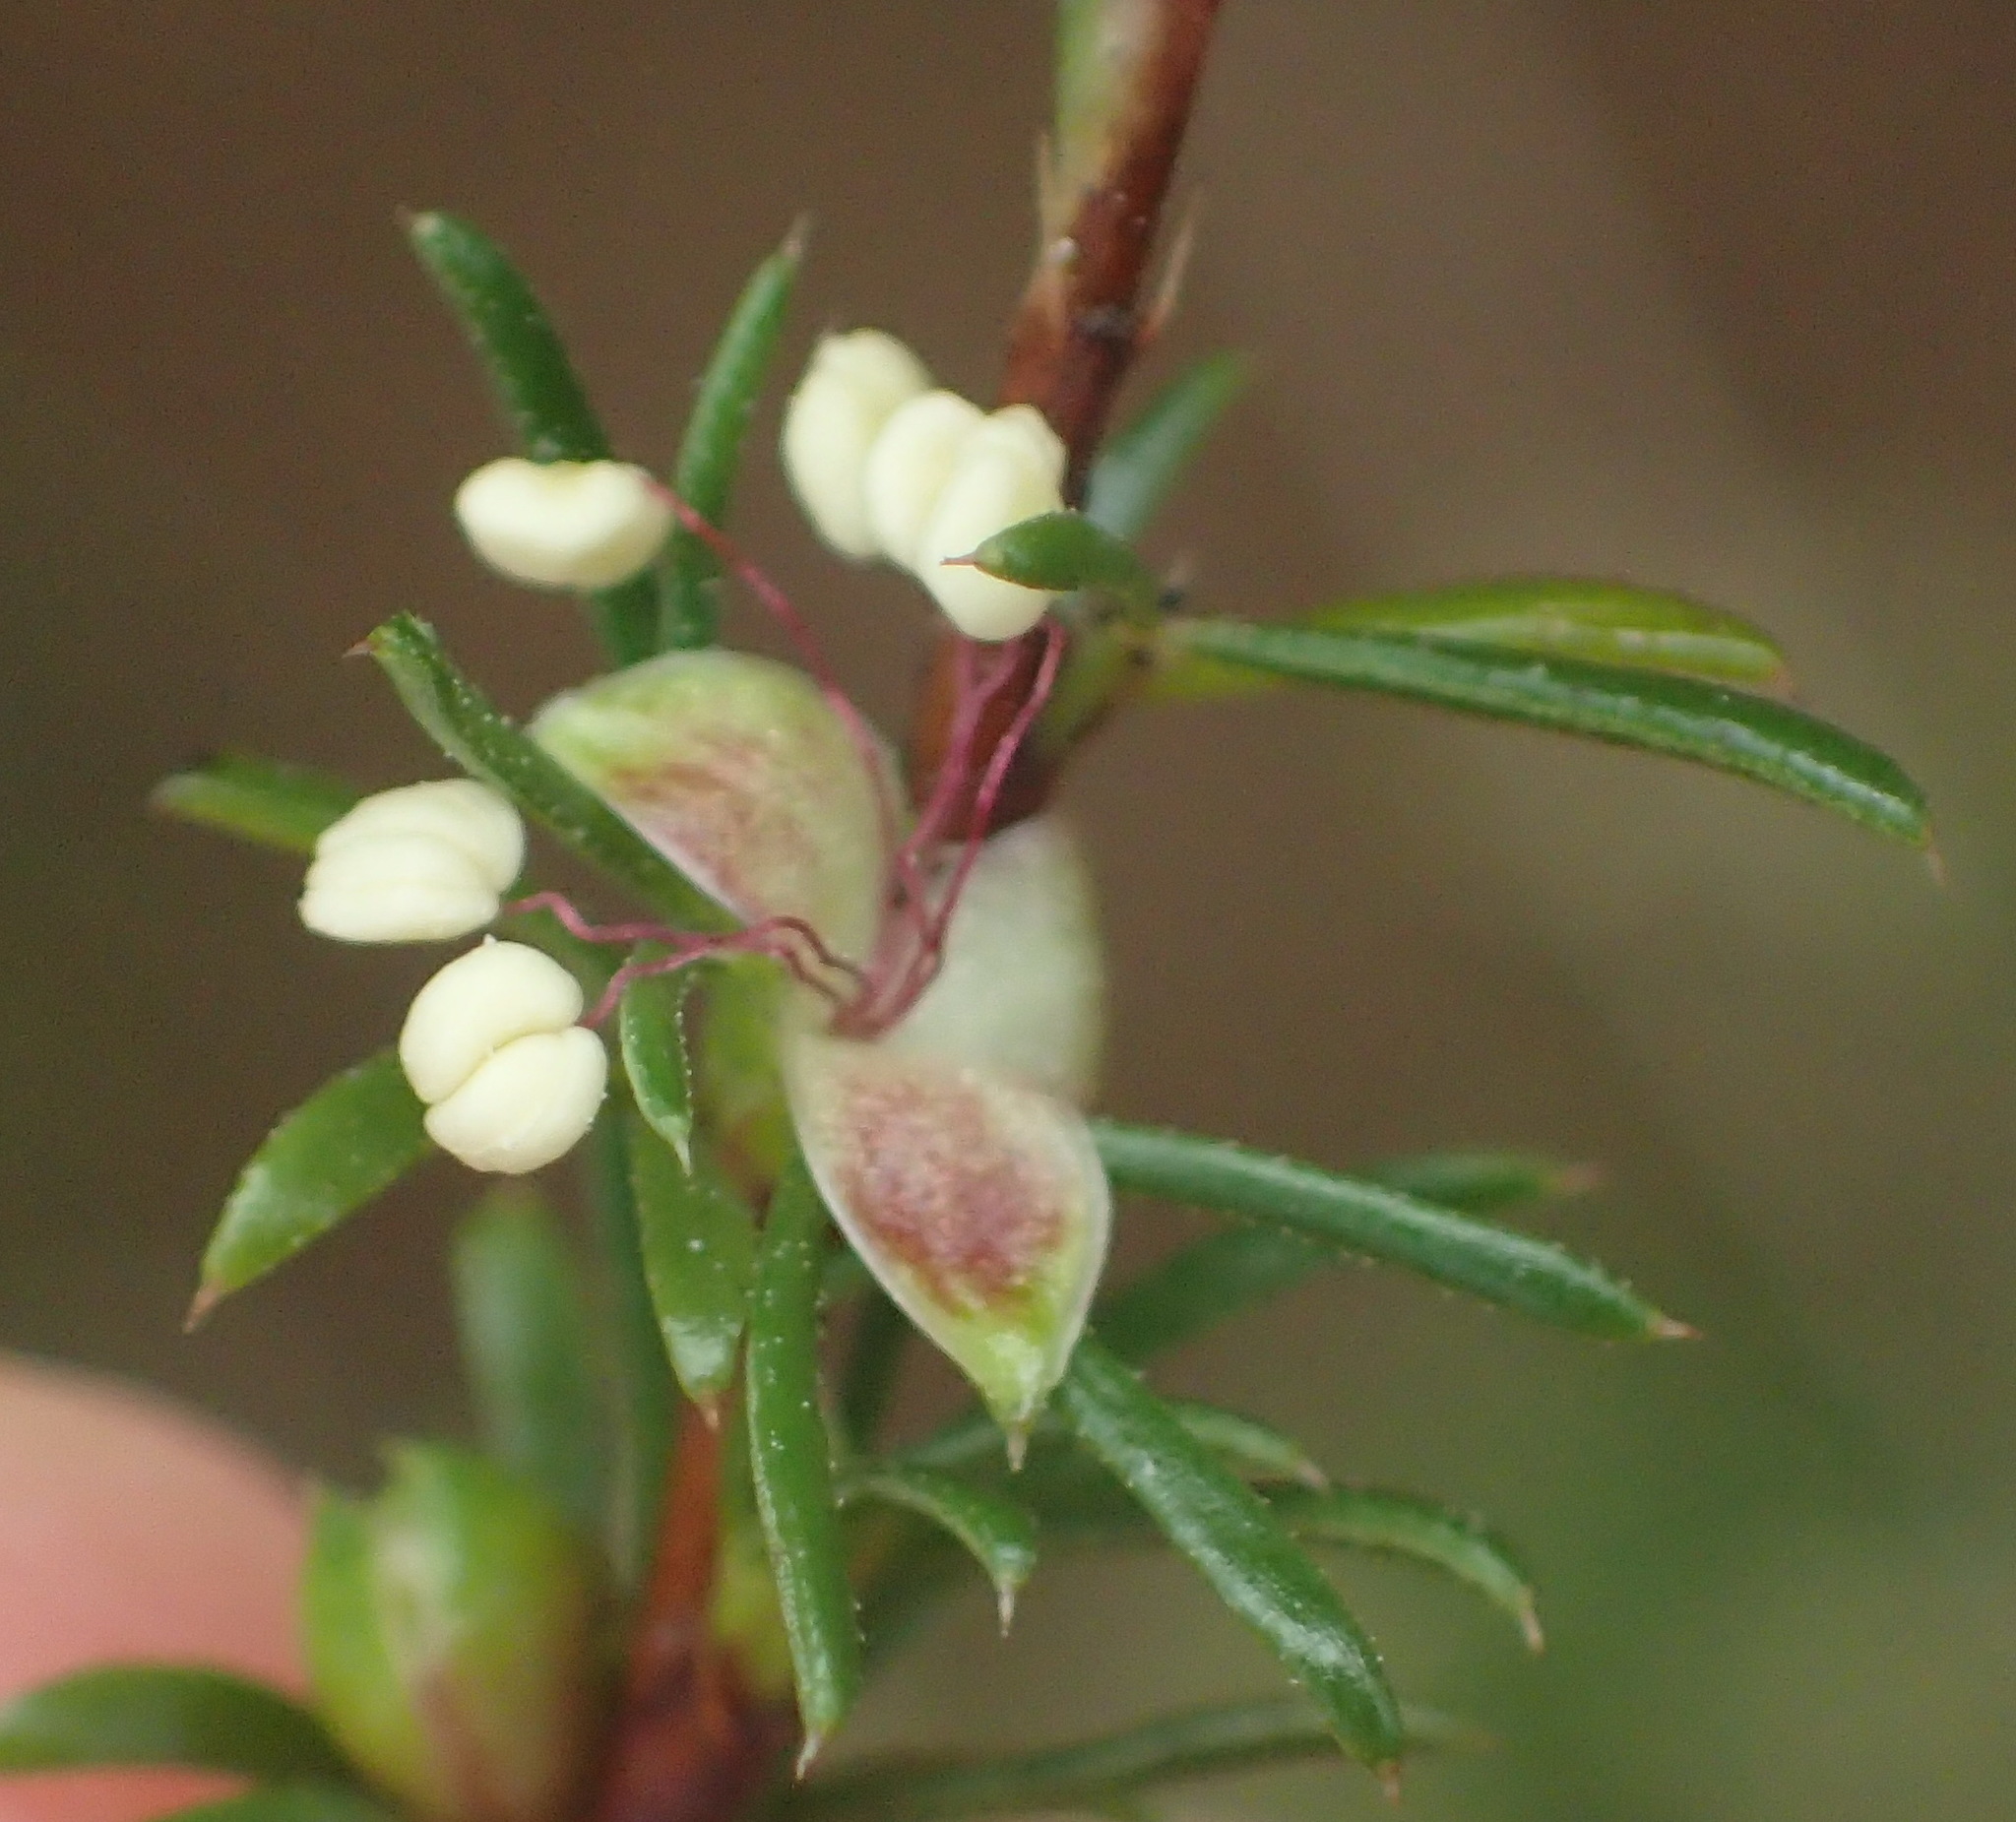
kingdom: Plantae
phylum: Tracheophyta
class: Magnoliopsida
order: Rosales
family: Rosaceae
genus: Cliffortia
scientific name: Cliffortia filifolia
